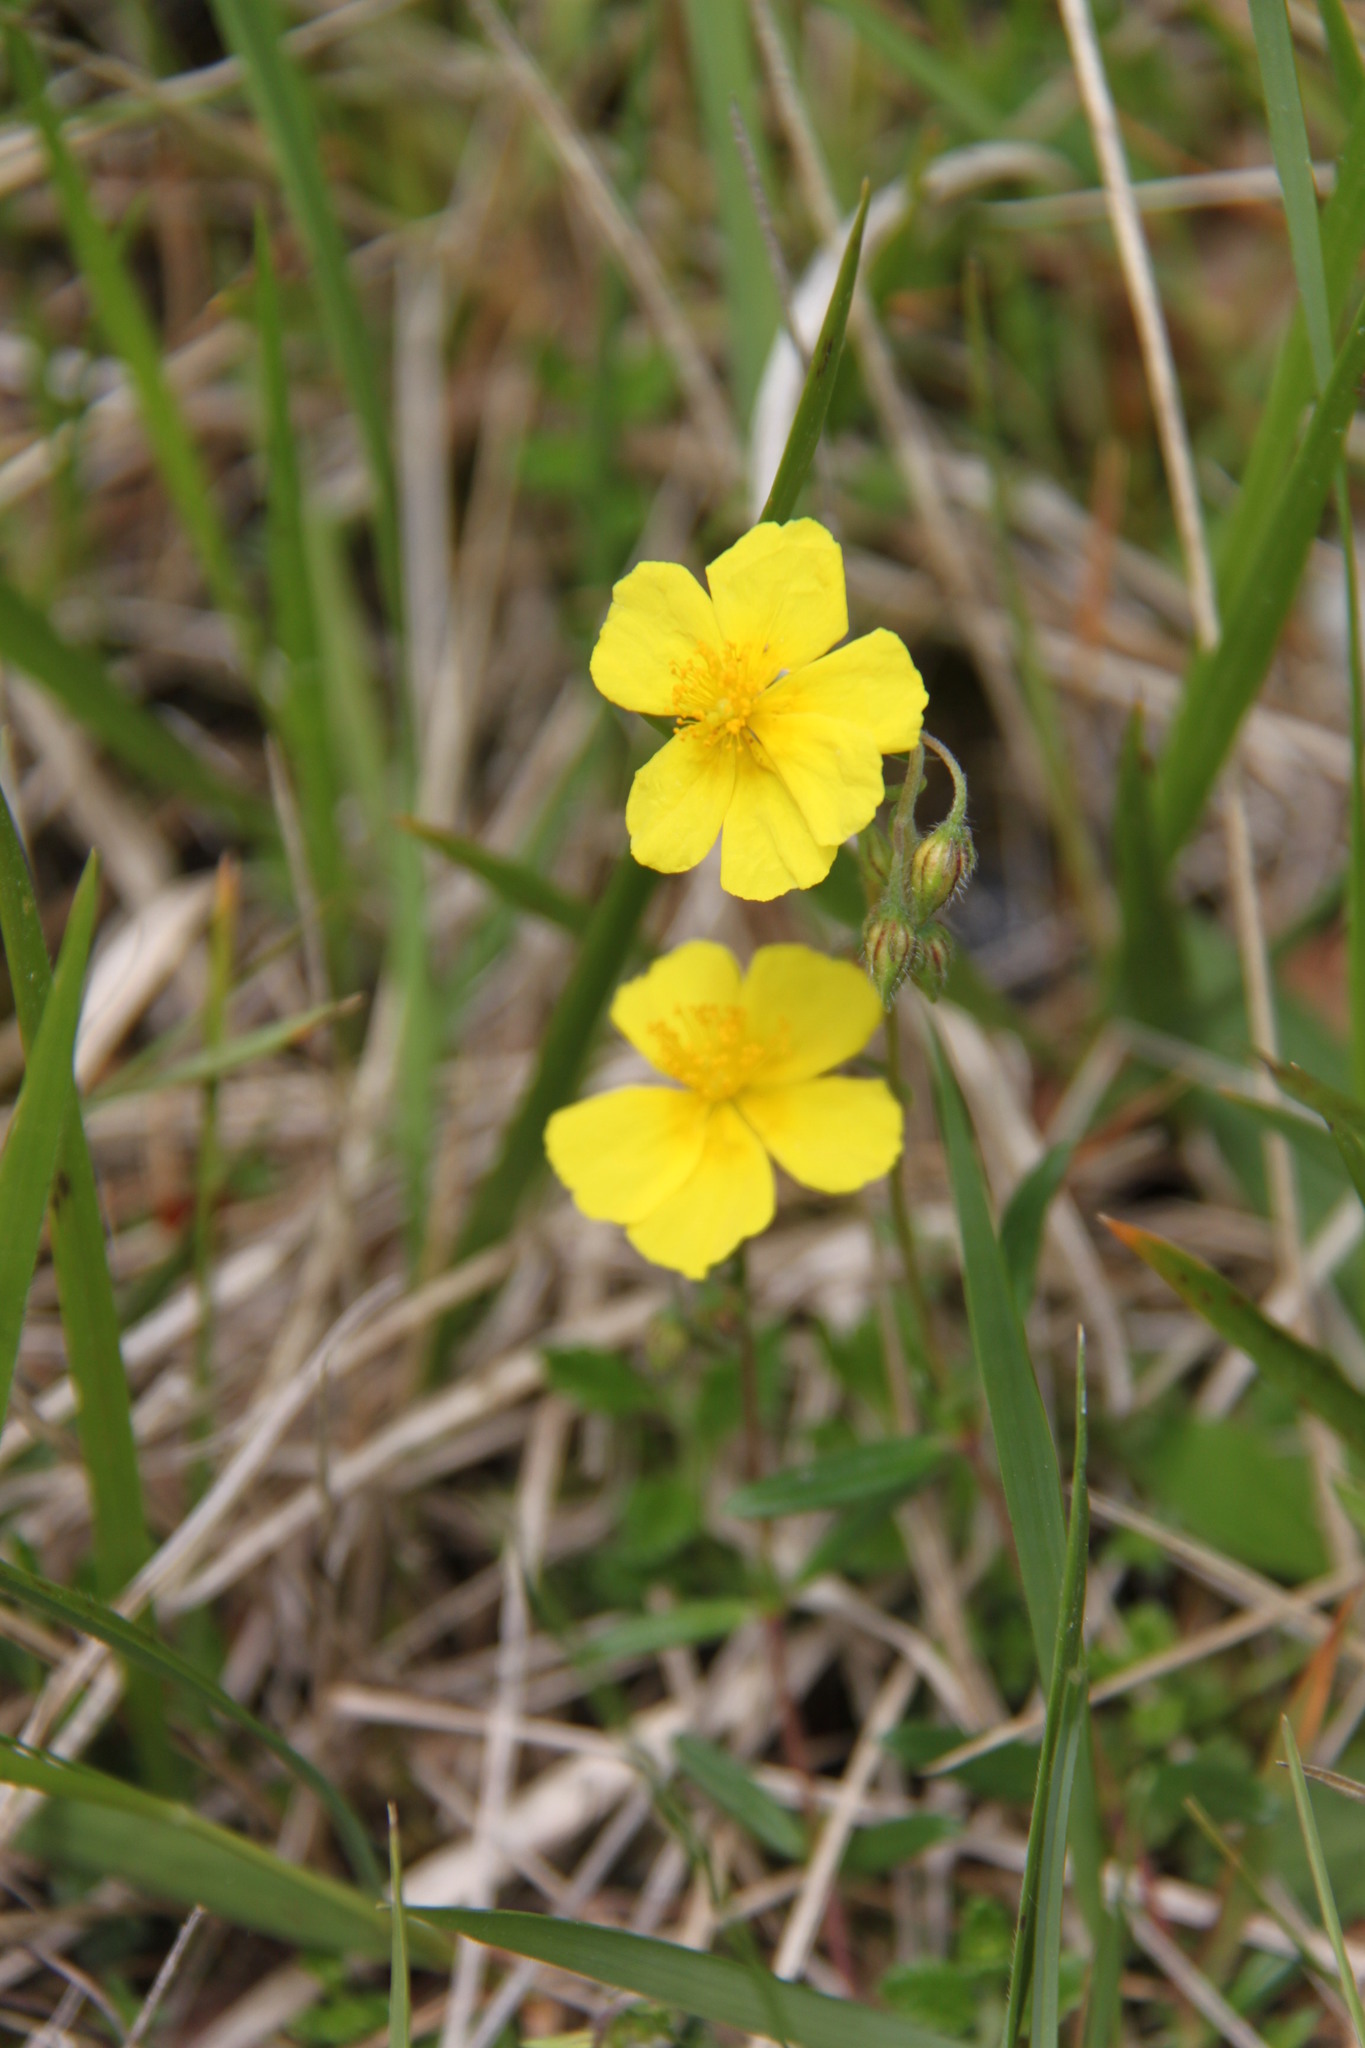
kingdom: Plantae
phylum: Tracheophyta
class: Magnoliopsida
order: Malvales
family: Cistaceae
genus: Helianthemum
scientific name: Helianthemum nummularium
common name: Common rock-rose
